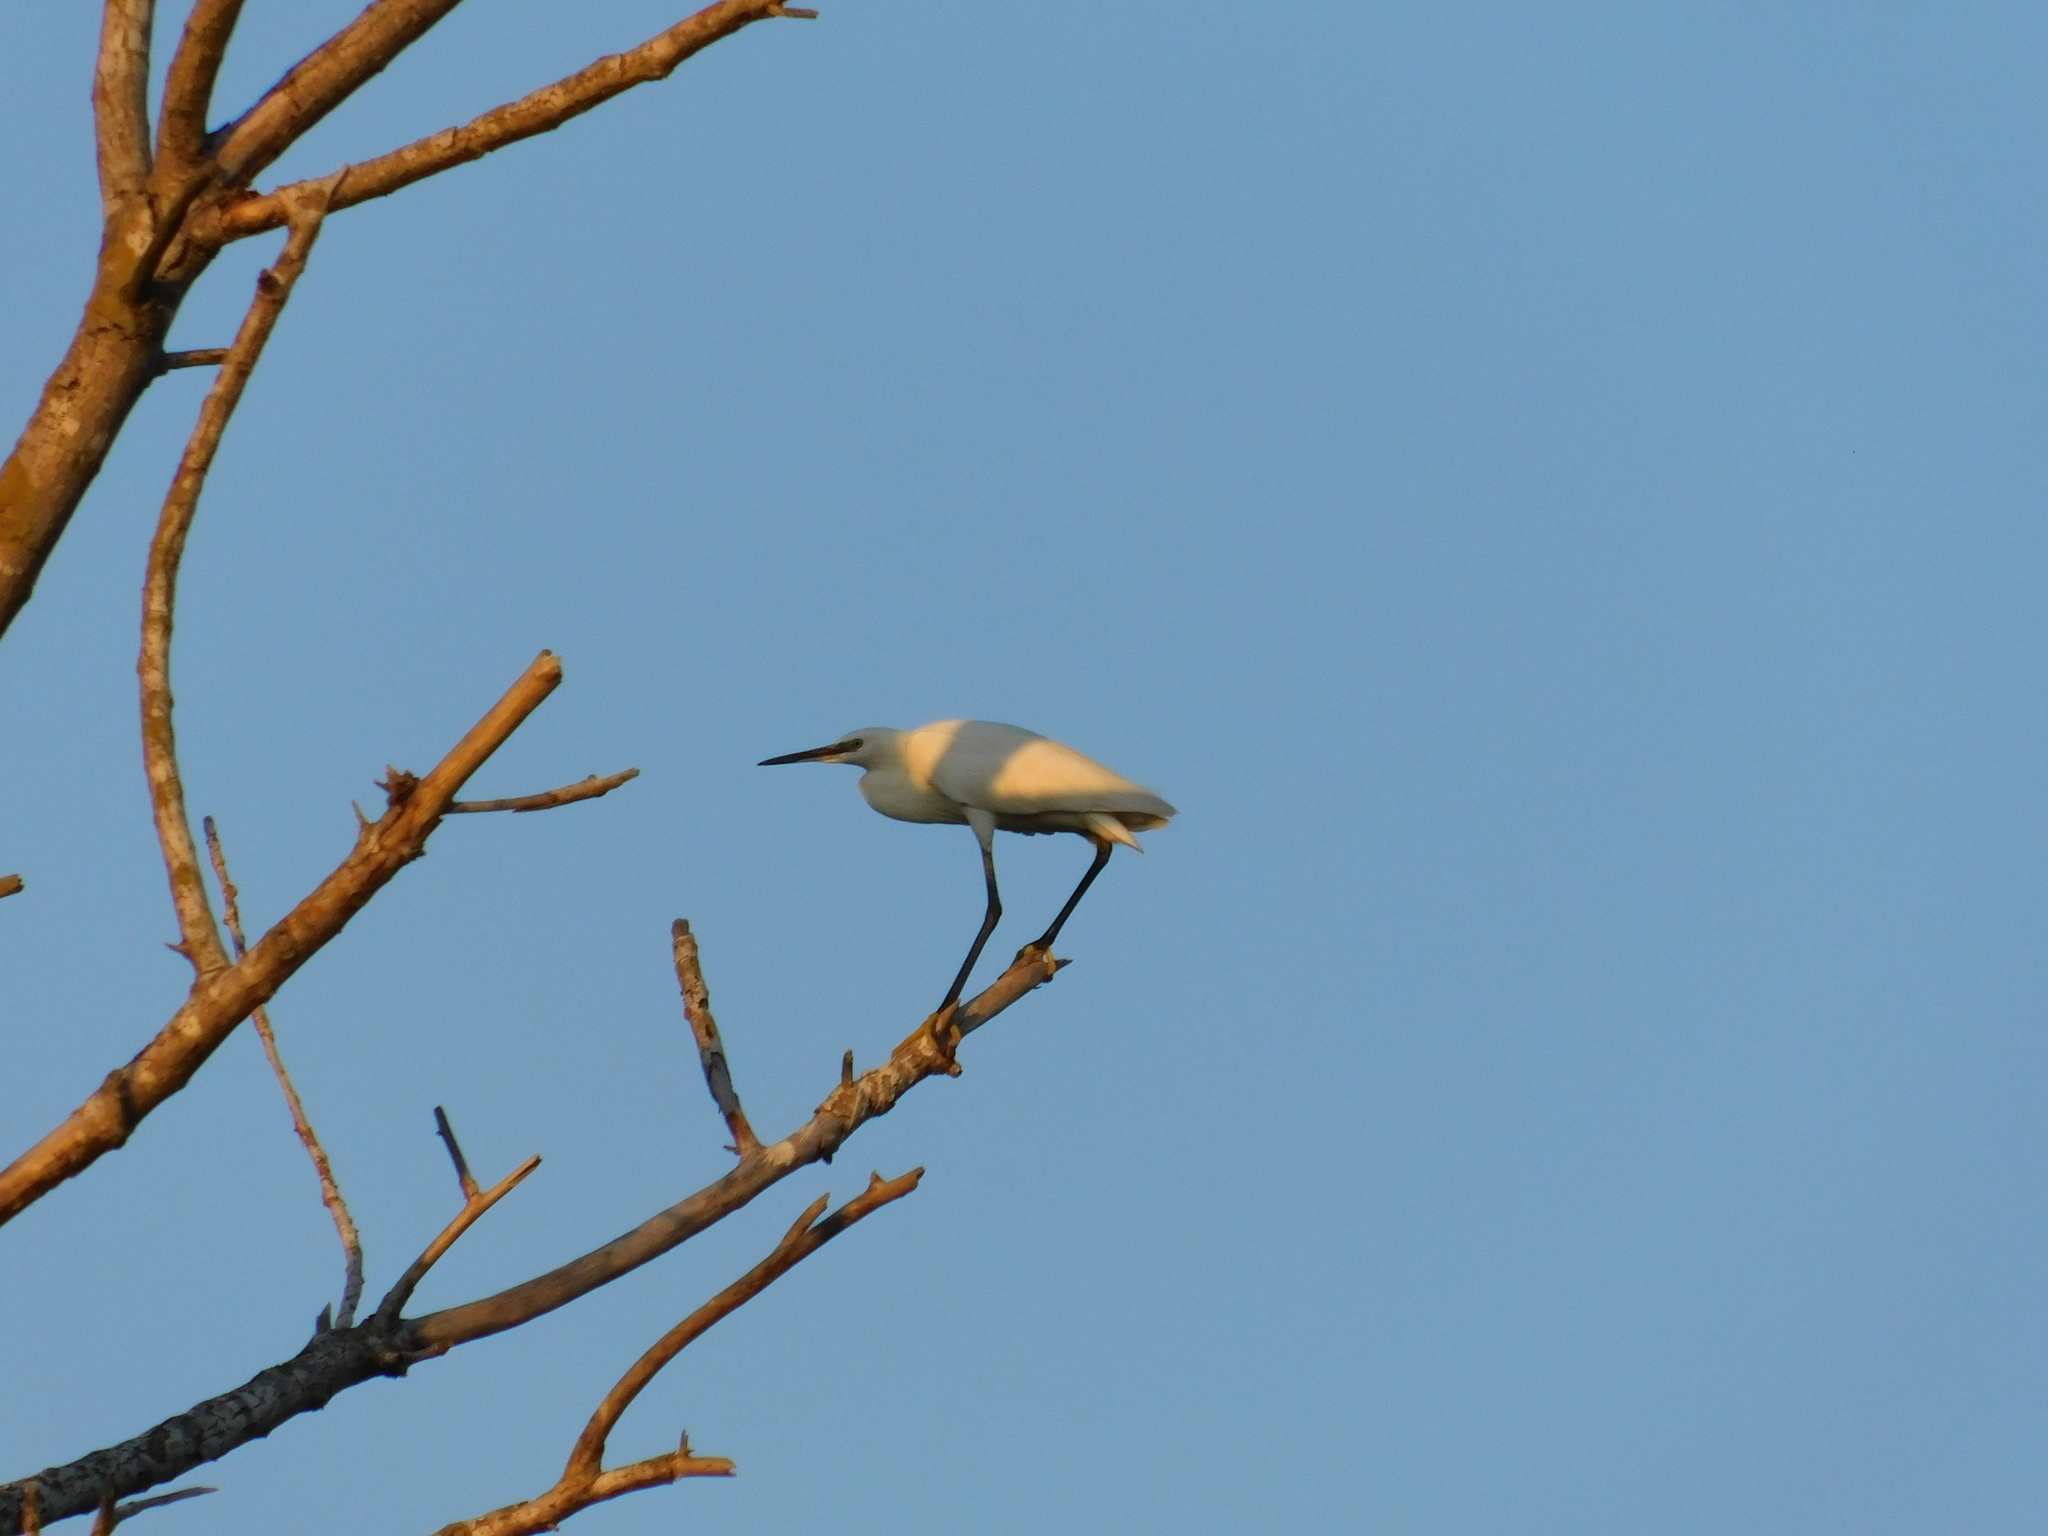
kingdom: Animalia
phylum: Chordata
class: Aves
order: Pelecaniformes
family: Ardeidae
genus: Egretta
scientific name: Egretta garzetta
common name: Little egret
